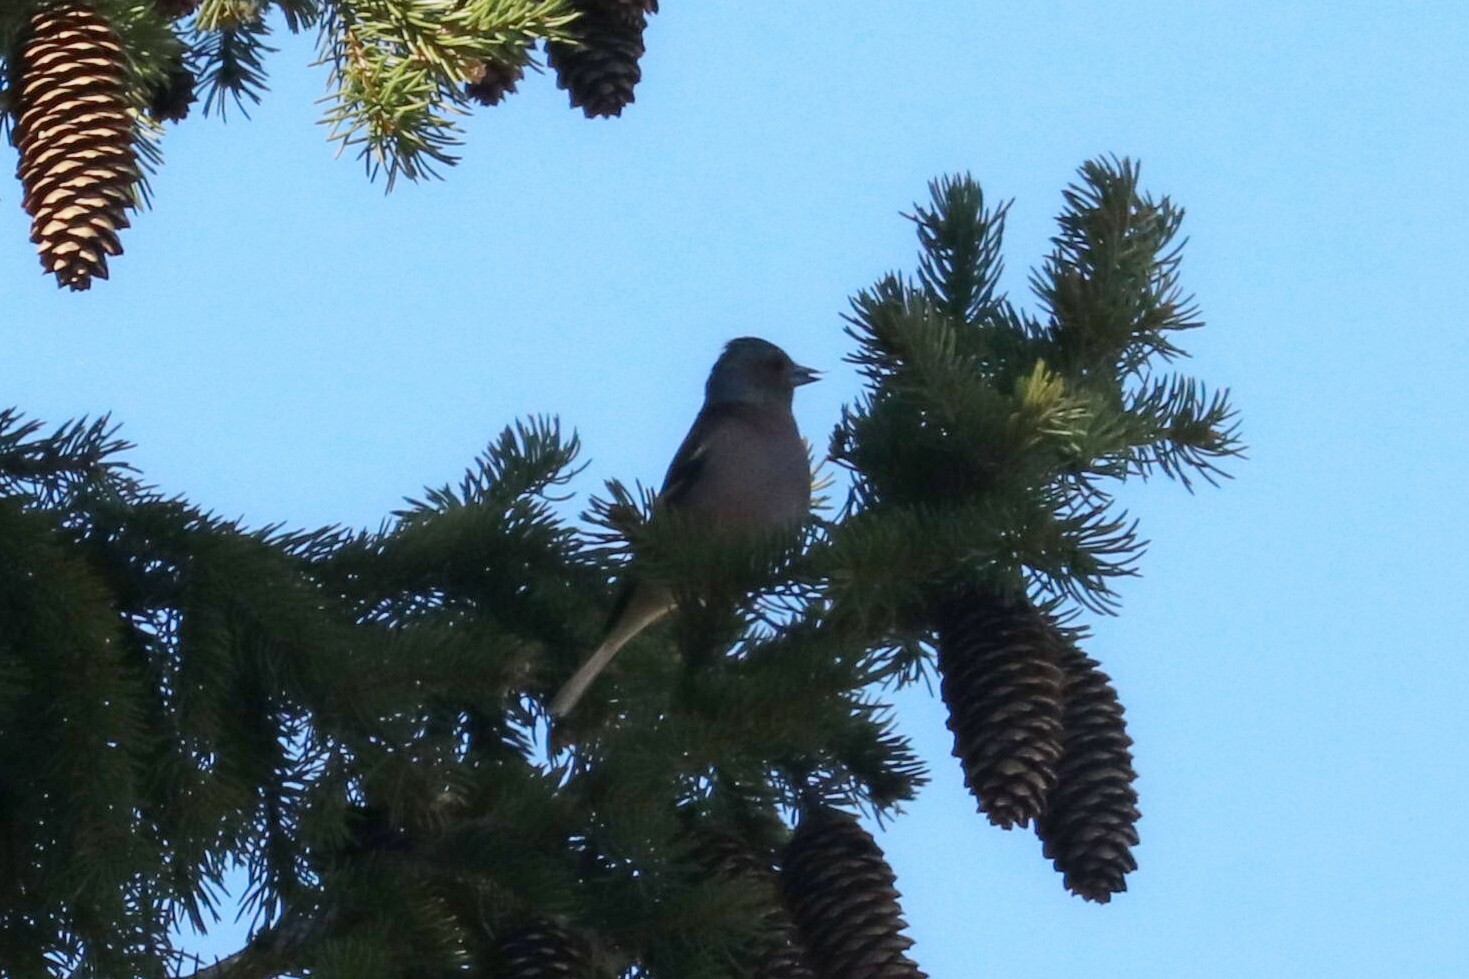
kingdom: Animalia
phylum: Chordata
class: Aves
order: Passeriformes
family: Fringillidae
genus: Fringilla
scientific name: Fringilla coelebs
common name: Common chaffinch
